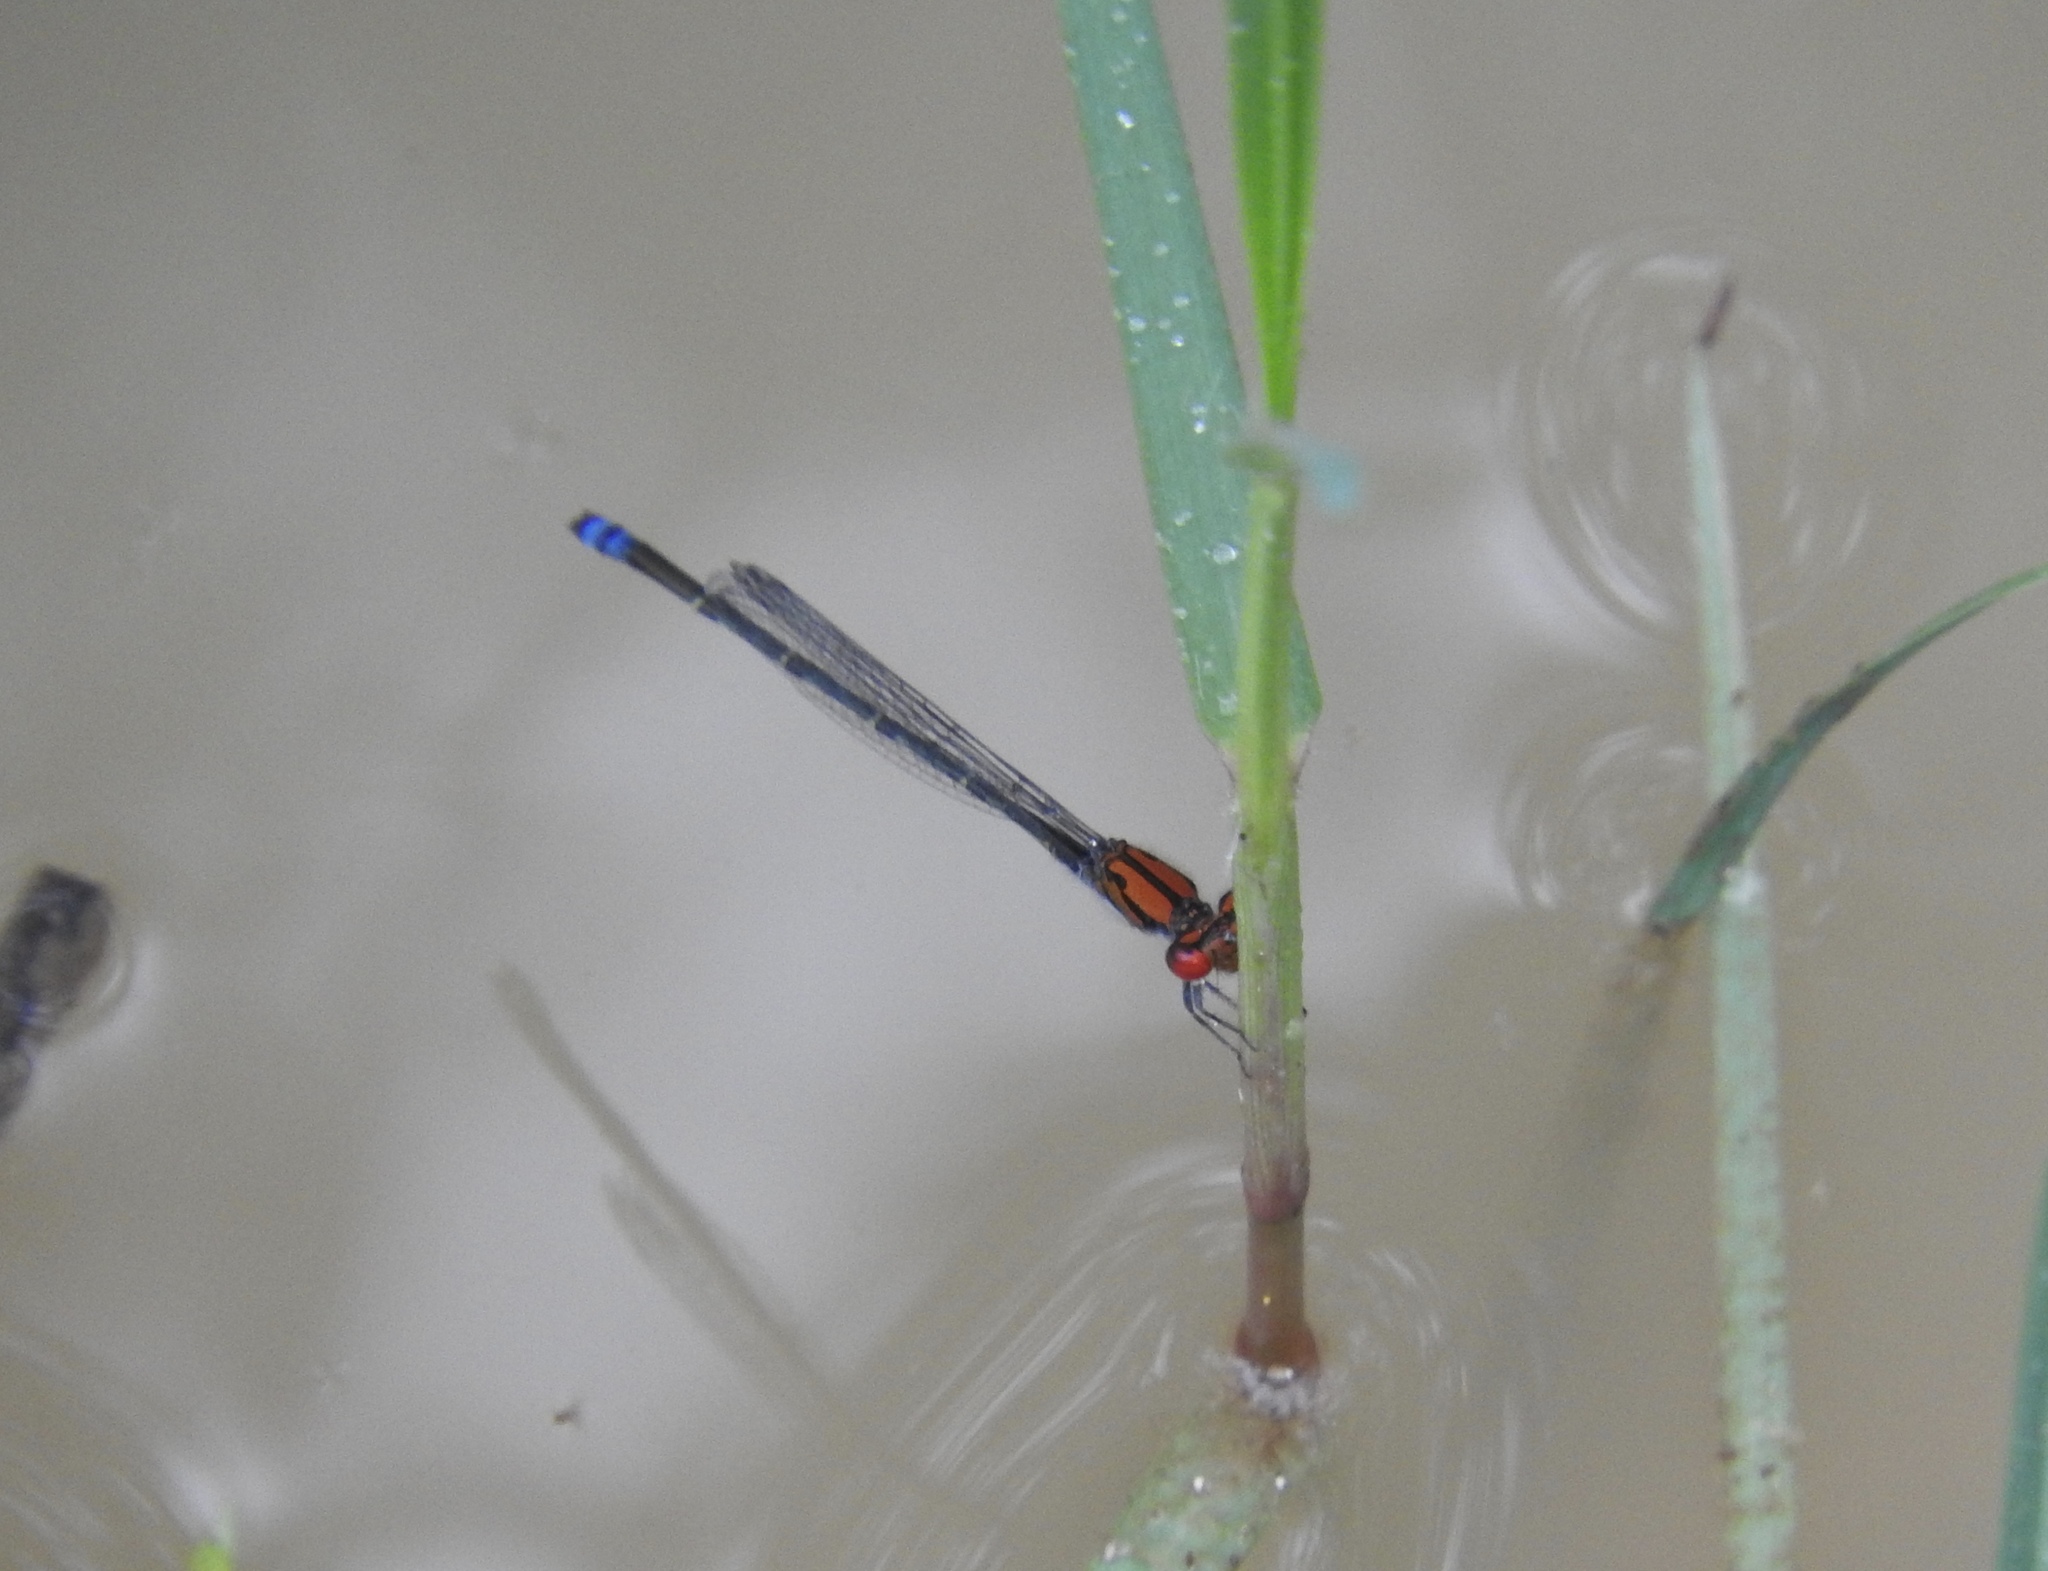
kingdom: Animalia
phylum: Arthropoda
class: Insecta
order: Odonata
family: Coenagrionidae
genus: Pseudagrion
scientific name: Pseudagrion massaicum
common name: Masai sprite
